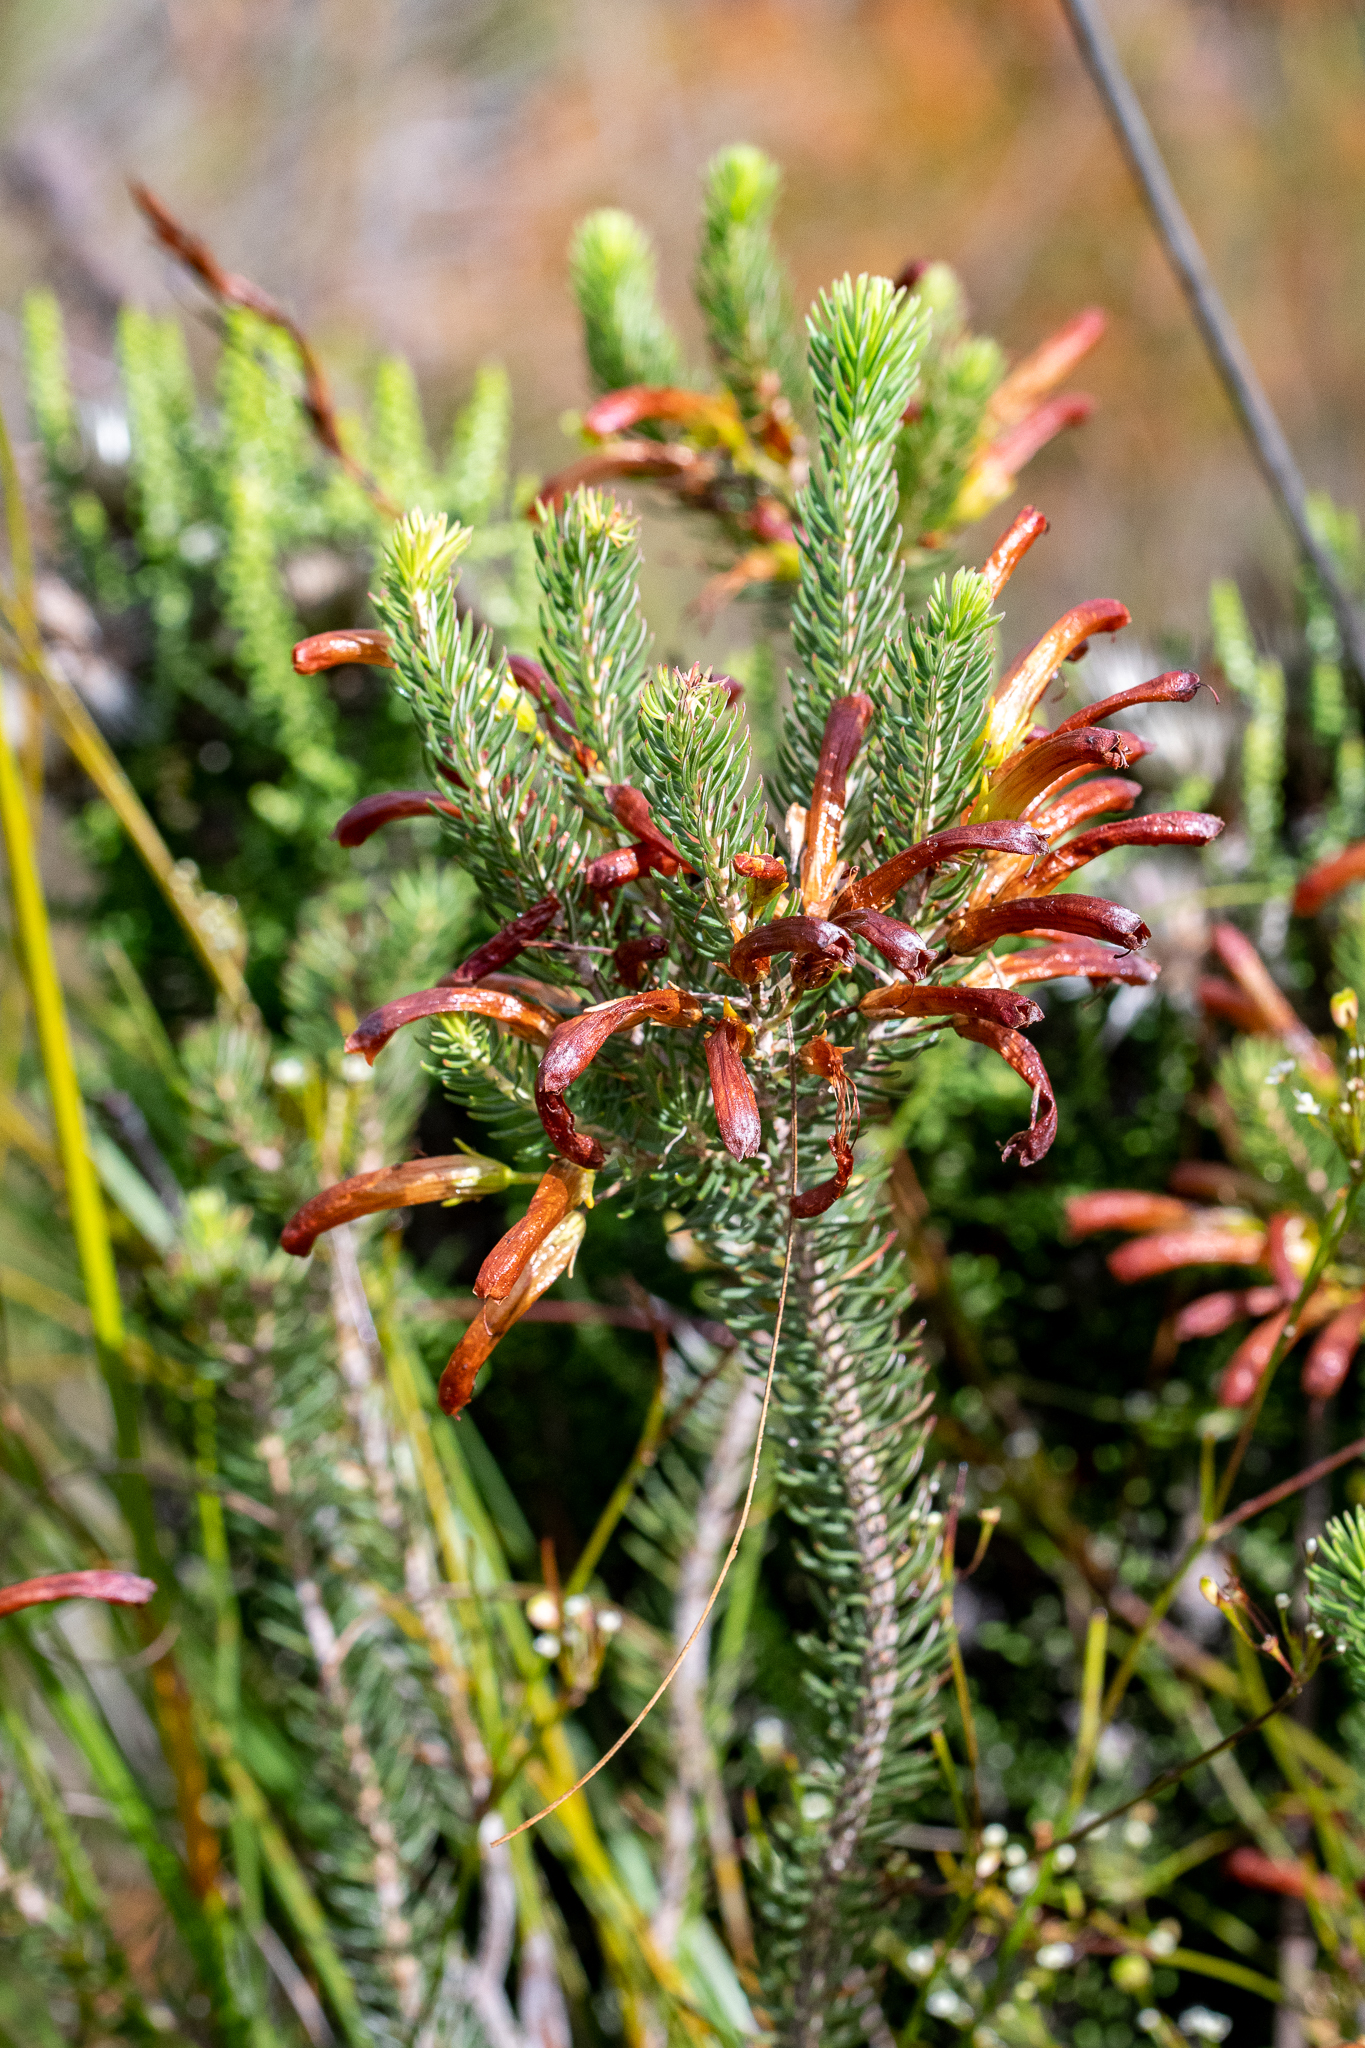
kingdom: Plantae
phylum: Tracheophyta
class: Magnoliopsida
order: Ericales
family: Ericaceae
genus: Erica
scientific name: Erica thomae
